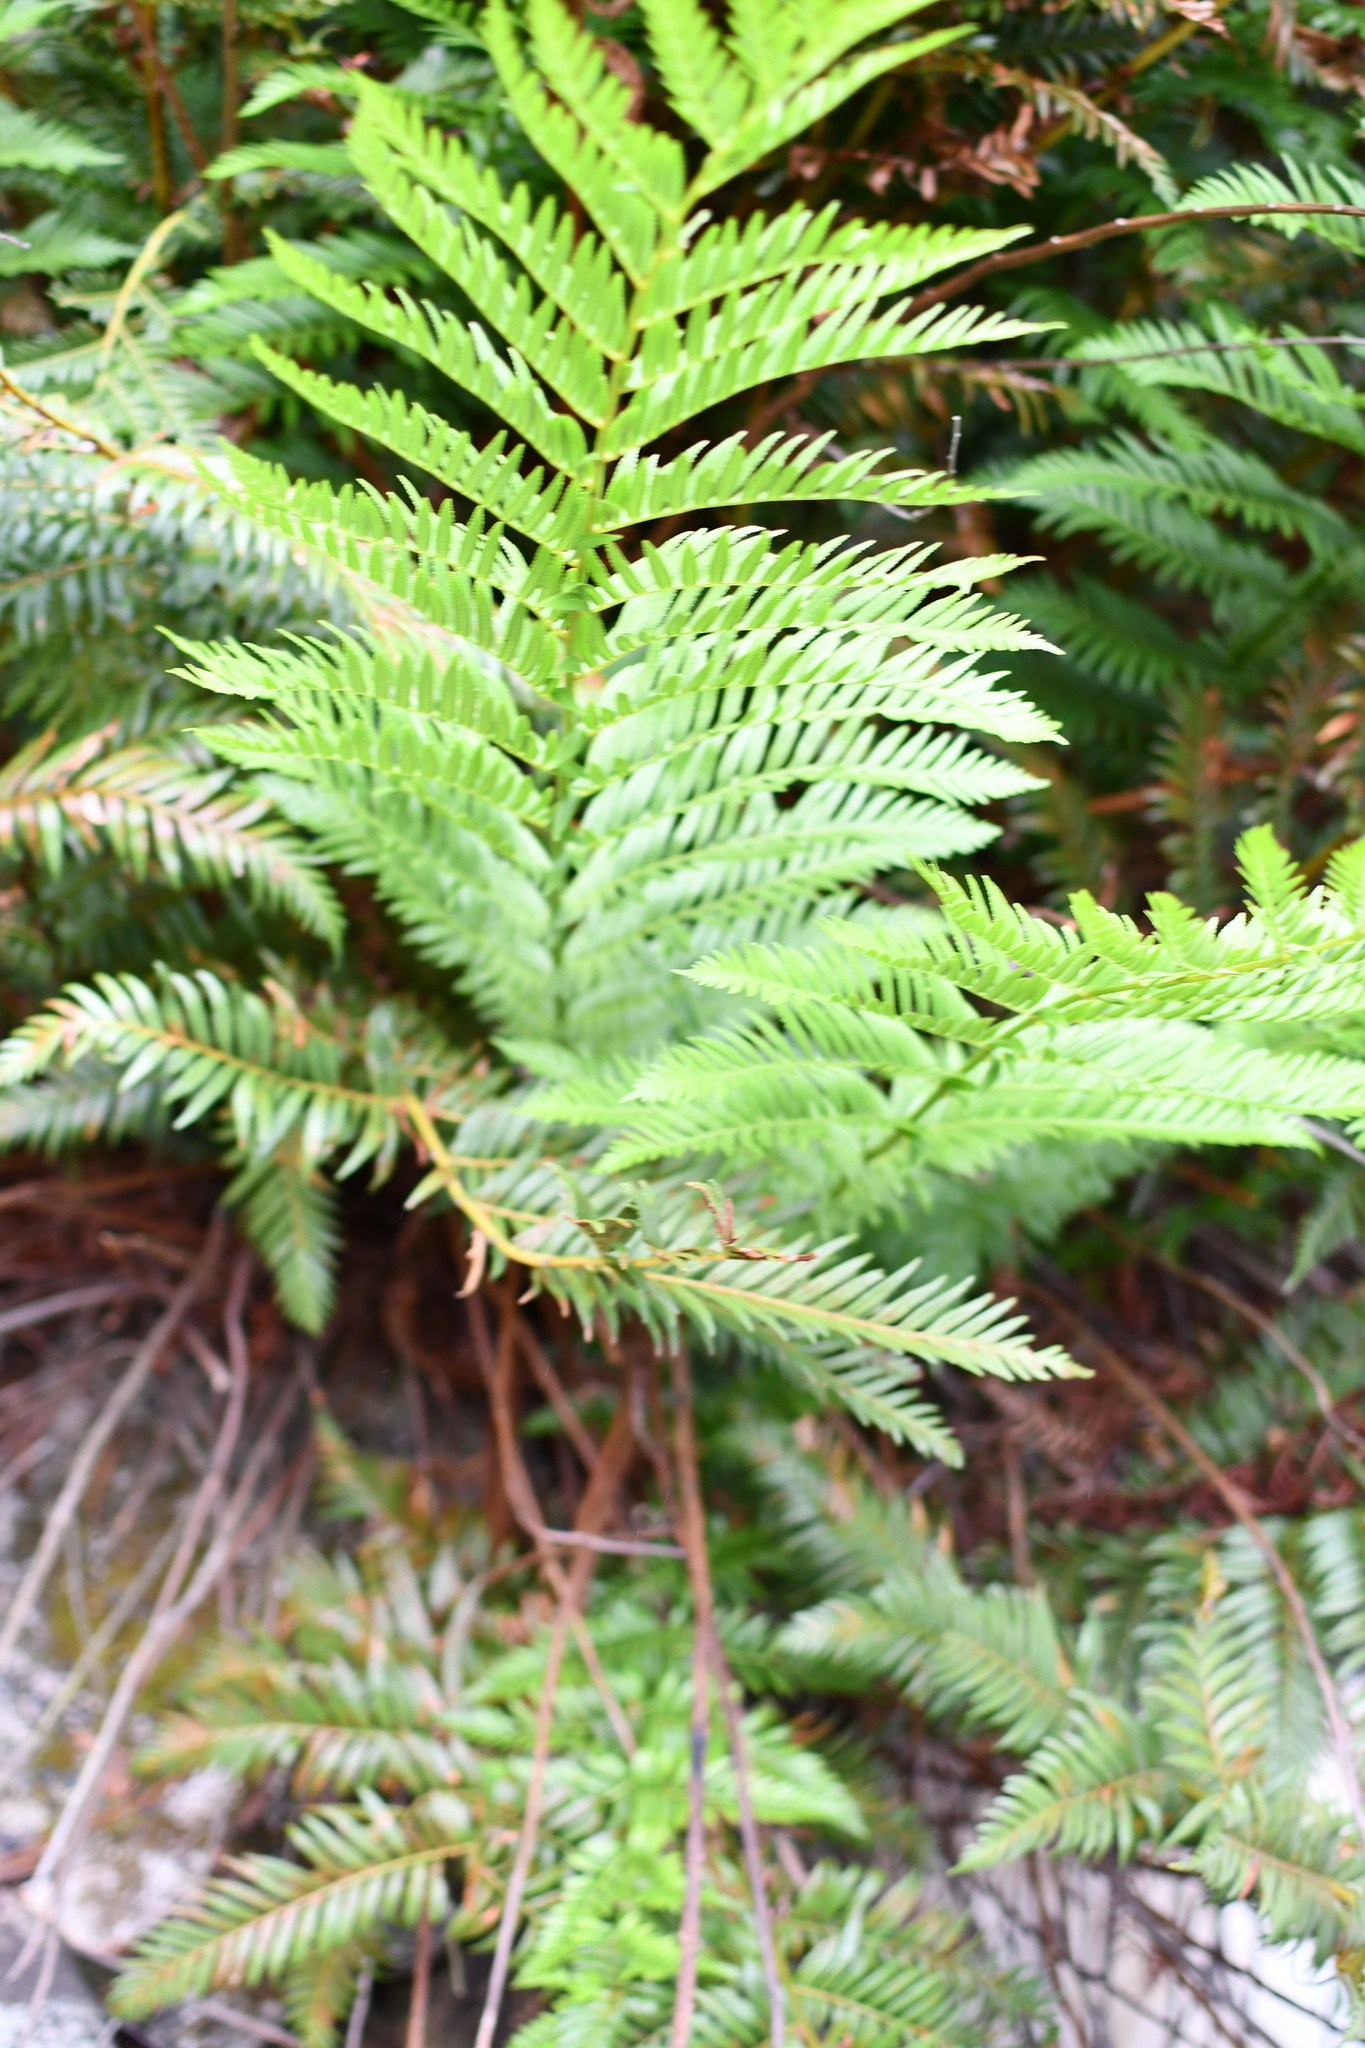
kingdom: Plantae
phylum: Tracheophyta
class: Polypodiopsida
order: Osmundales
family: Osmundaceae
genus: Todea
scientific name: Todea barbara
